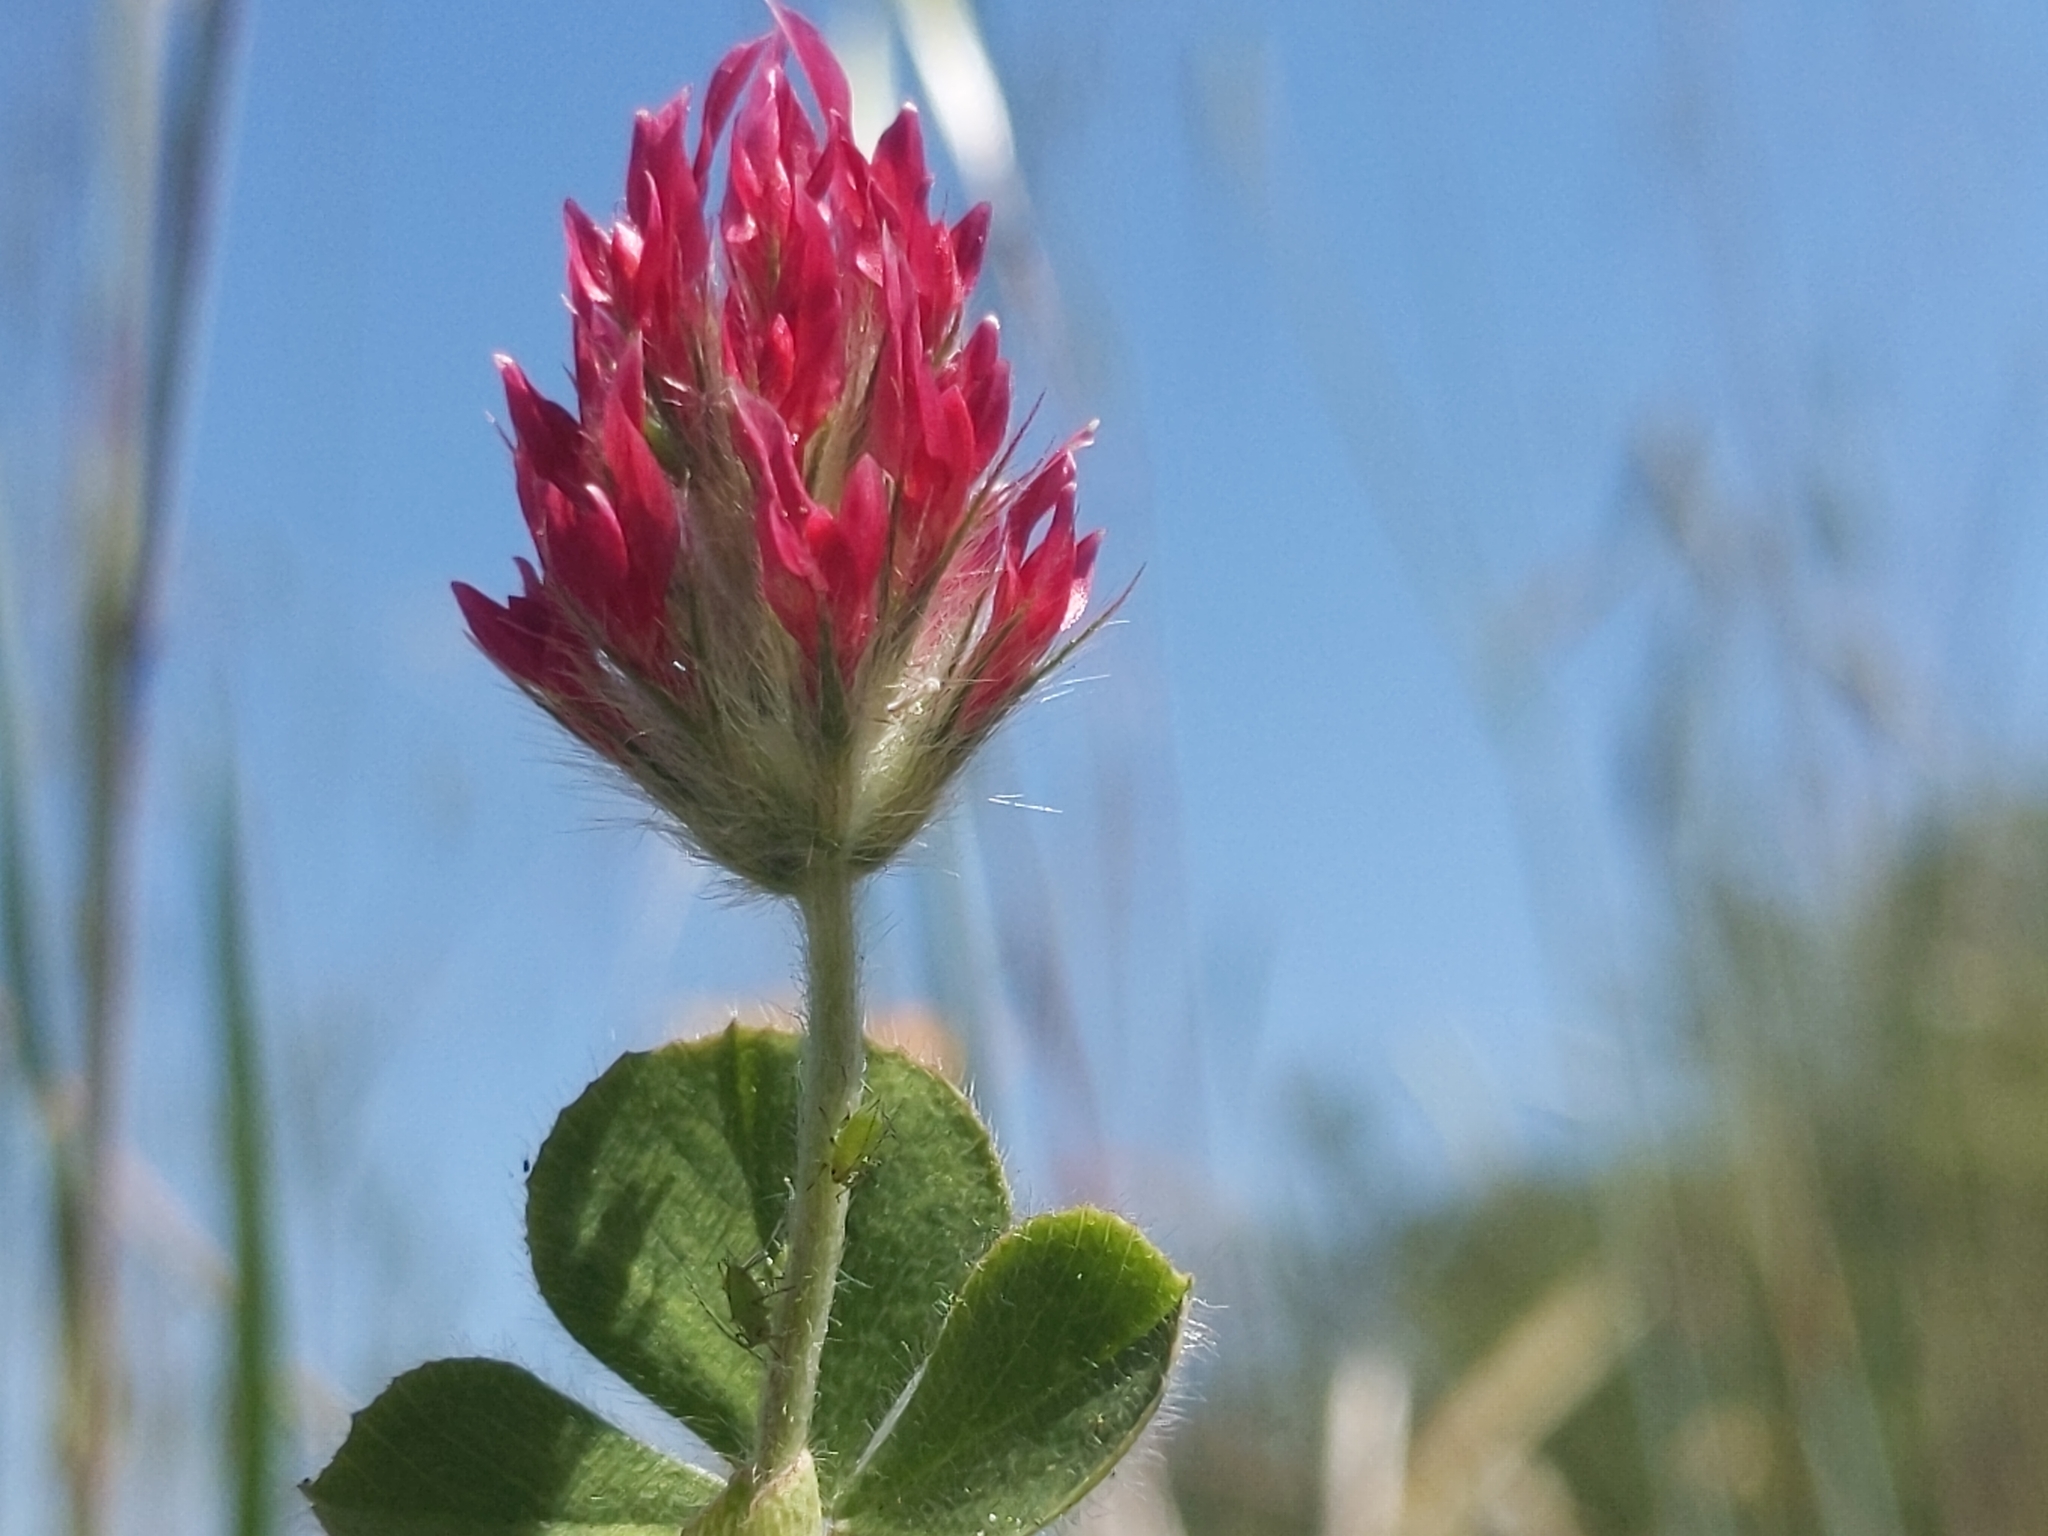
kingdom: Plantae
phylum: Tracheophyta
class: Magnoliopsida
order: Fabales
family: Fabaceae
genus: Trifolium
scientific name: Trifolium incarnatum
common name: Crimson clover
